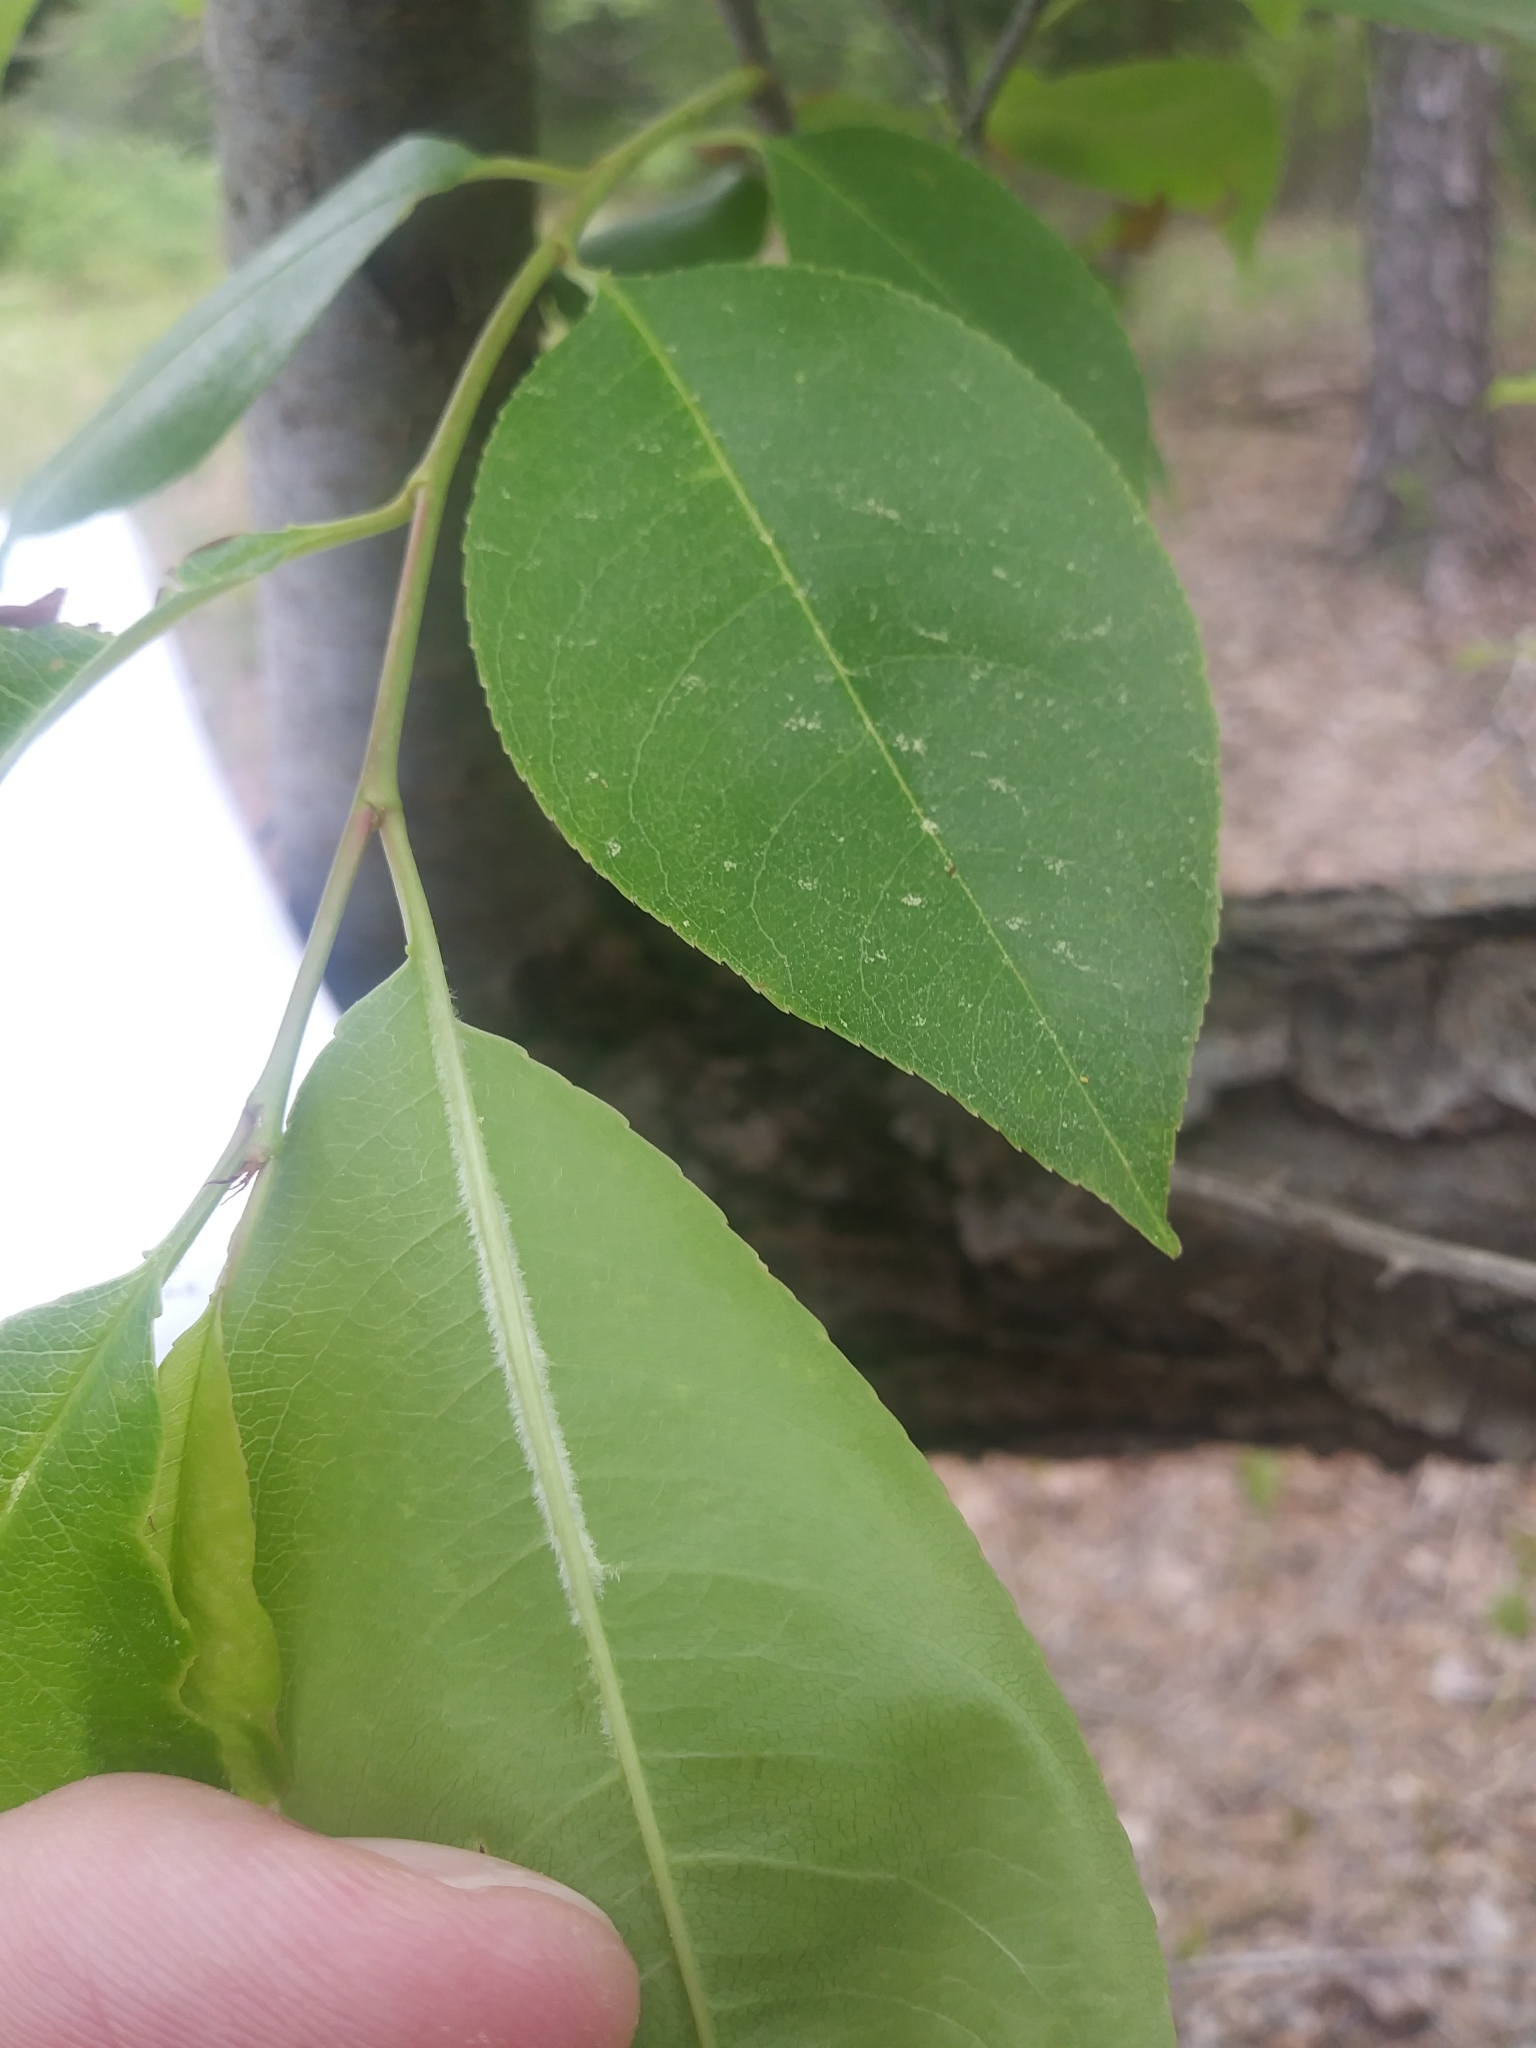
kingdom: Plantae
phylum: Tracheophyta
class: Magnoliopsida
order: Rosales
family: Rosaceae
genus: Prunus
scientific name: Prunus serotina
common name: Black cherry
